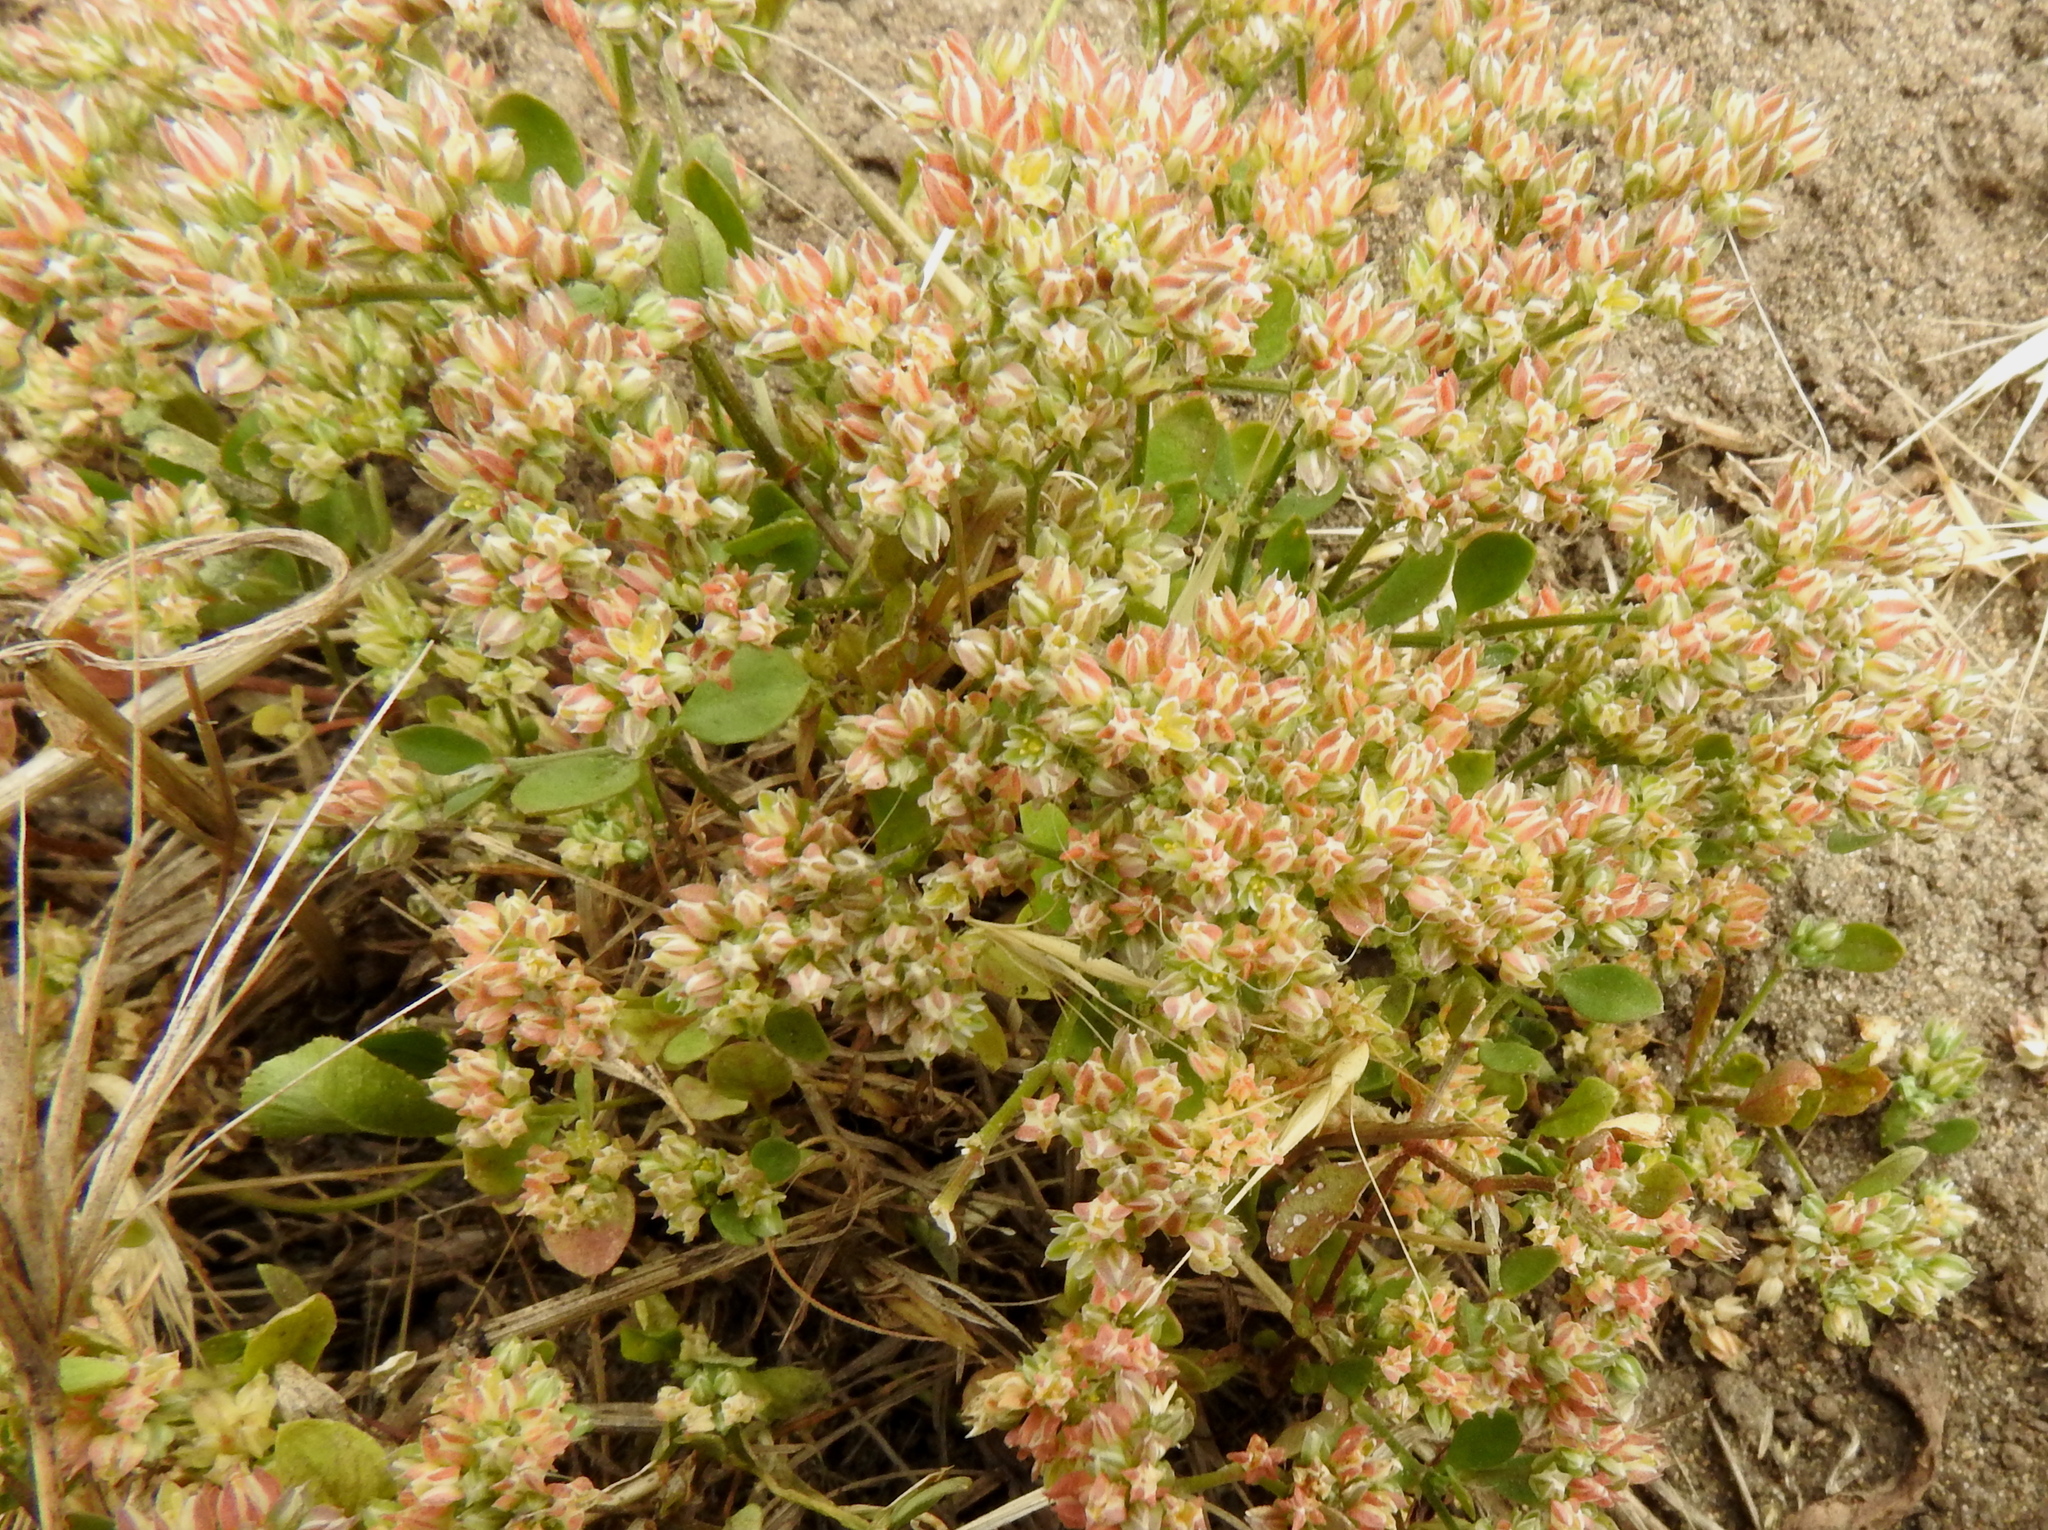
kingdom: Plantae
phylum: Tracheophyta
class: Magnoliopsida
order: Caryophyllales
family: Caryophyllaceae
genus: Polycarpon
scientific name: Polycarpon tetraphyllum
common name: Four-leaved all-seed
